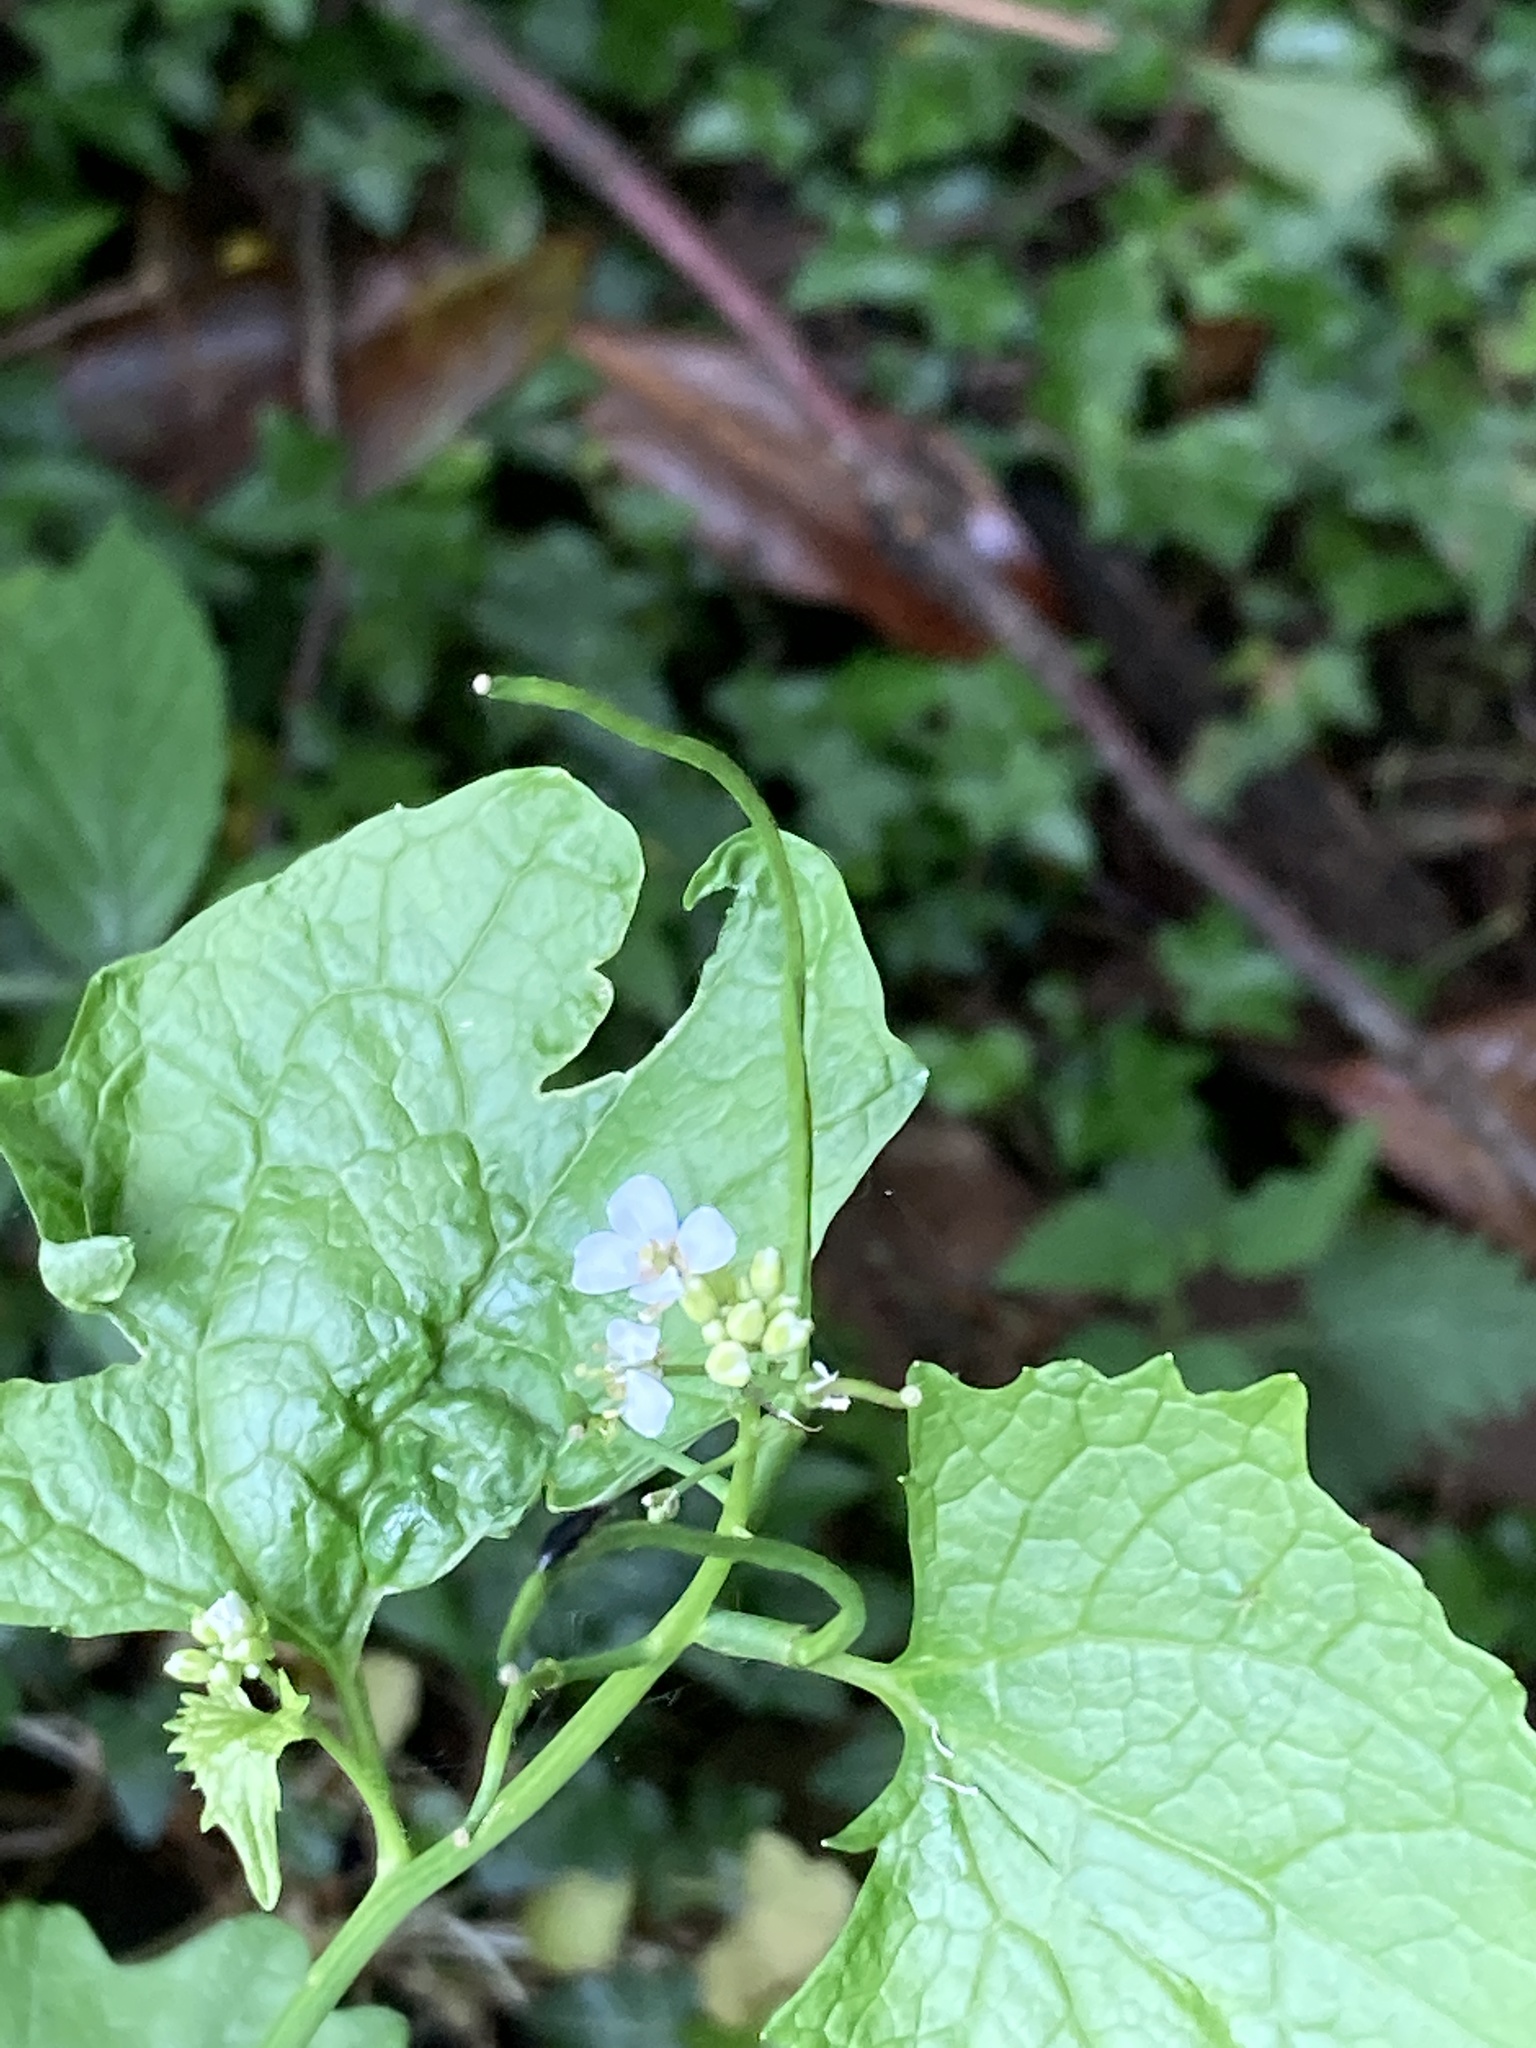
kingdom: Plantae
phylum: Tracheophyta
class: Magnoliopsida
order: Brassicales
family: Brassicaceae
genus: Alliaria
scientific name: Alliaria petiolata
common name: Garlic mustard
